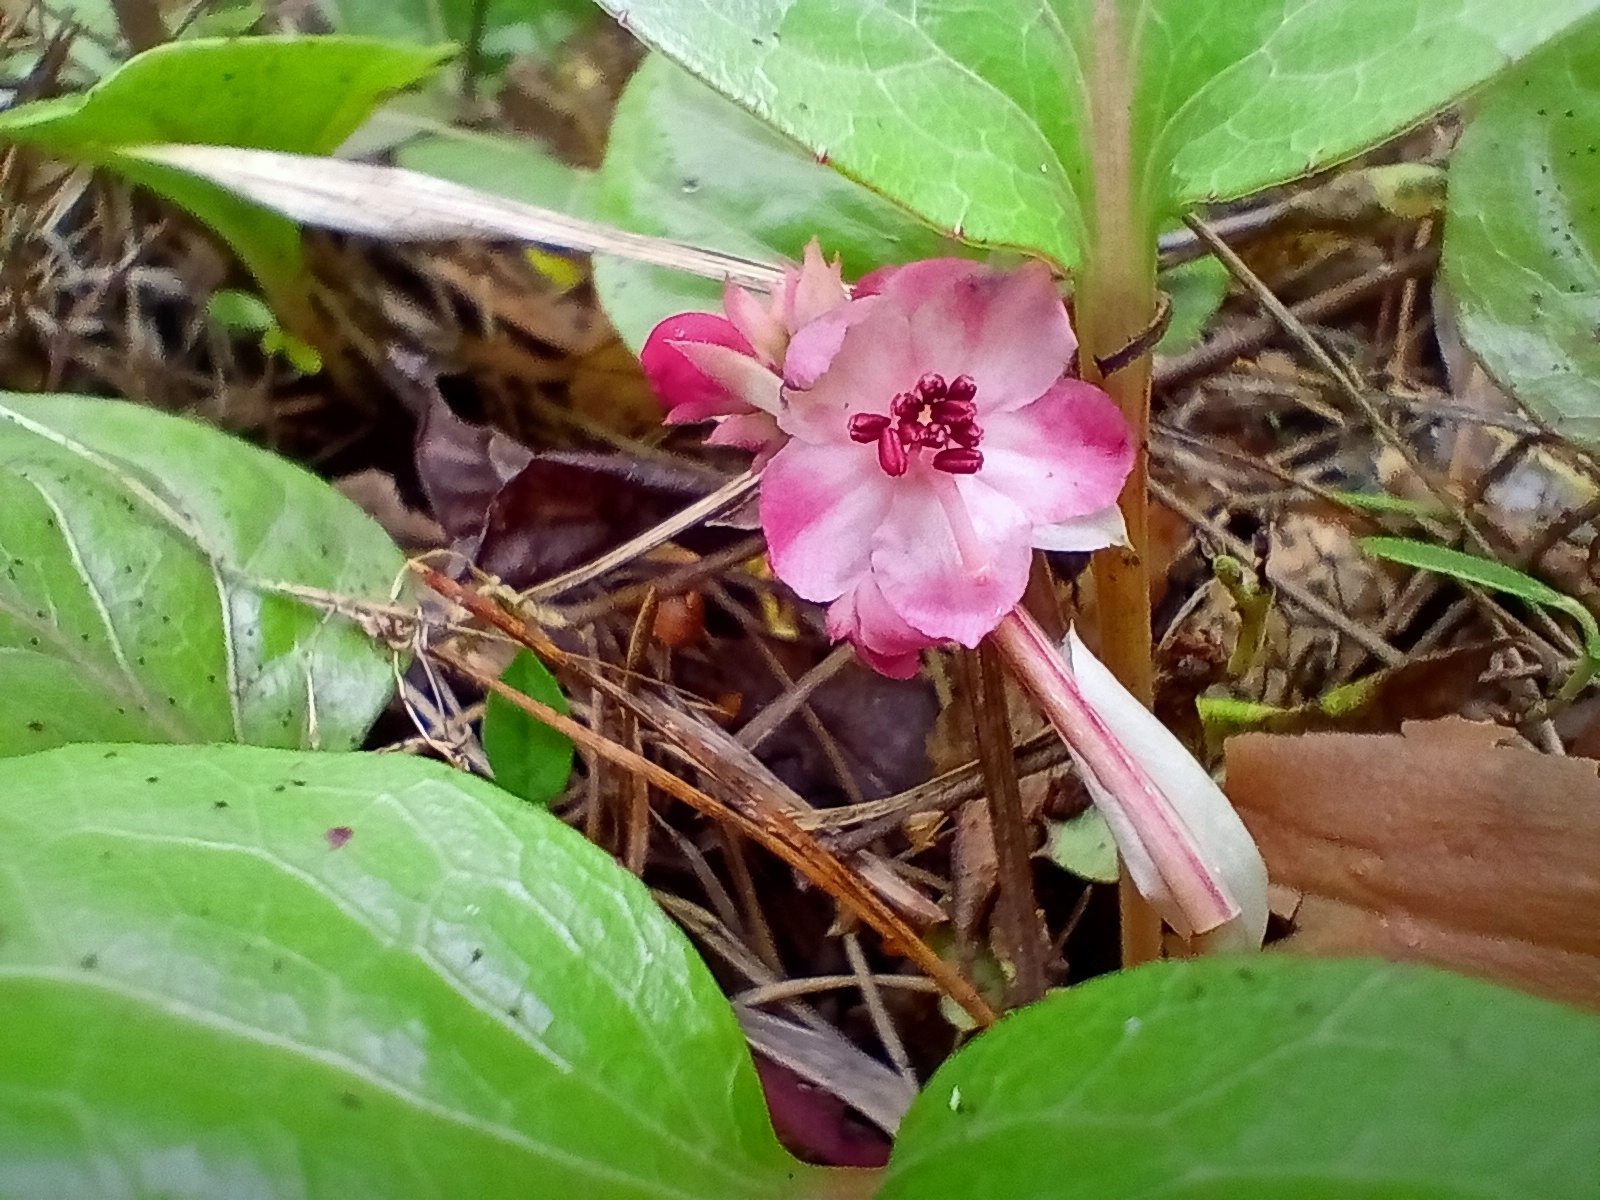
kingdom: Plantae
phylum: Tracheophyta
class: Magnoliopsida
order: Ericales
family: Ericaceae
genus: Pyrola
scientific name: Pyrola asarifolia
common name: Bog wintergreen
